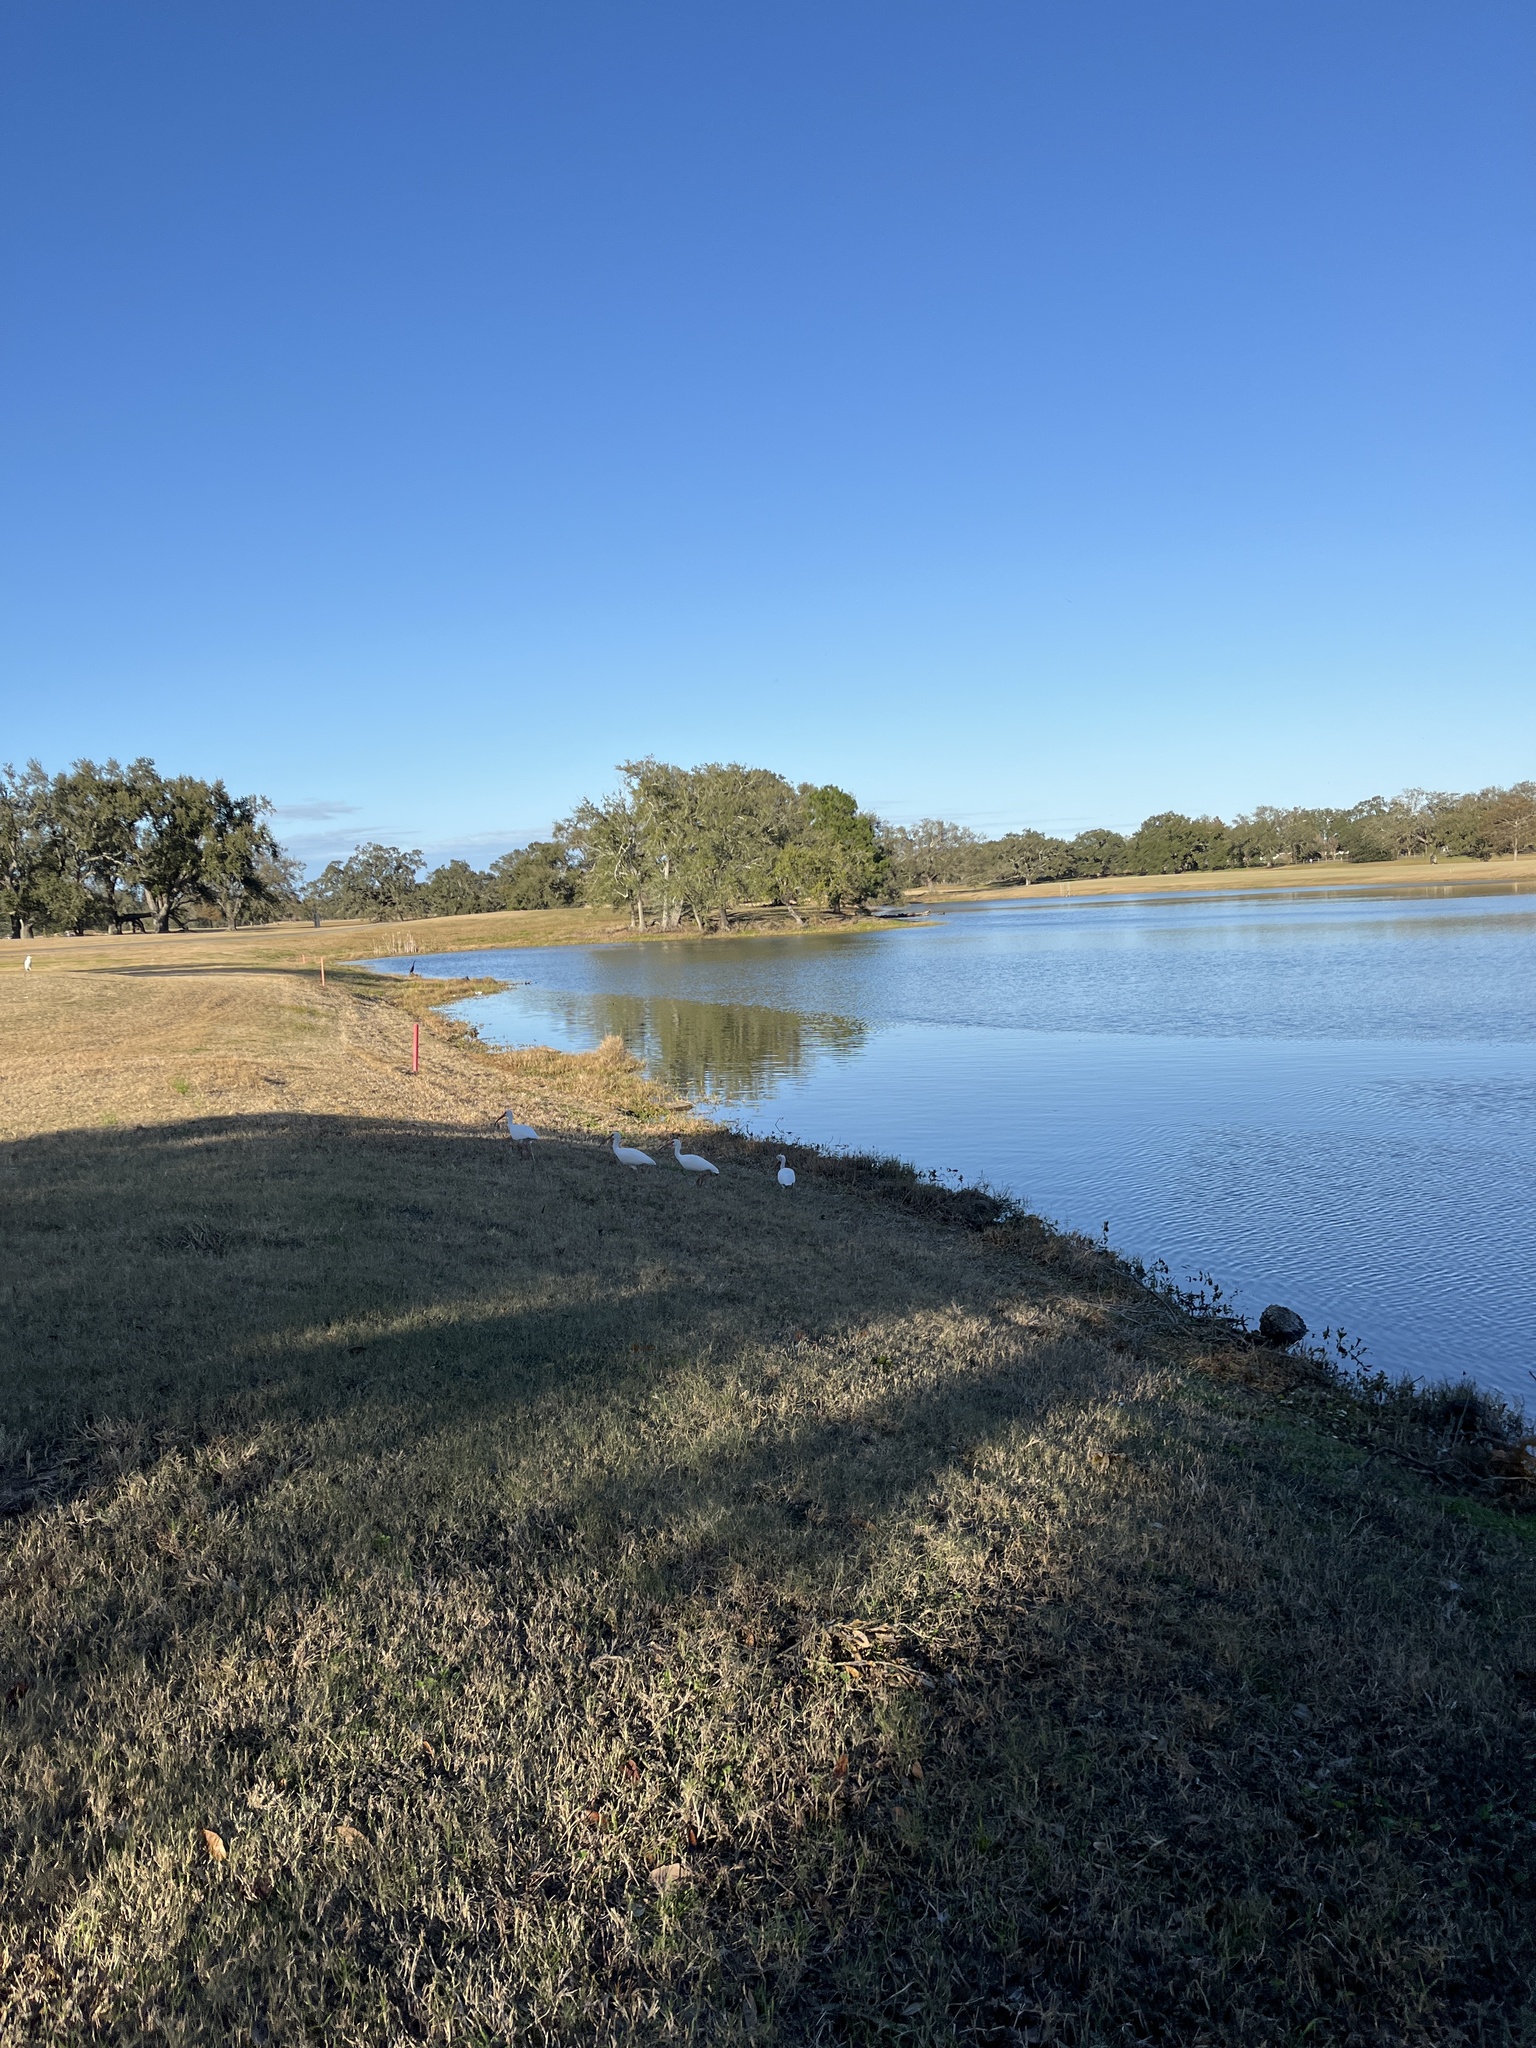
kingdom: Animalia
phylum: Chordata
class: Aves
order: Pelecaniformes
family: Threskiornithidae
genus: Eudocimus
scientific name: Eudocimus albus
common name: White ibis
